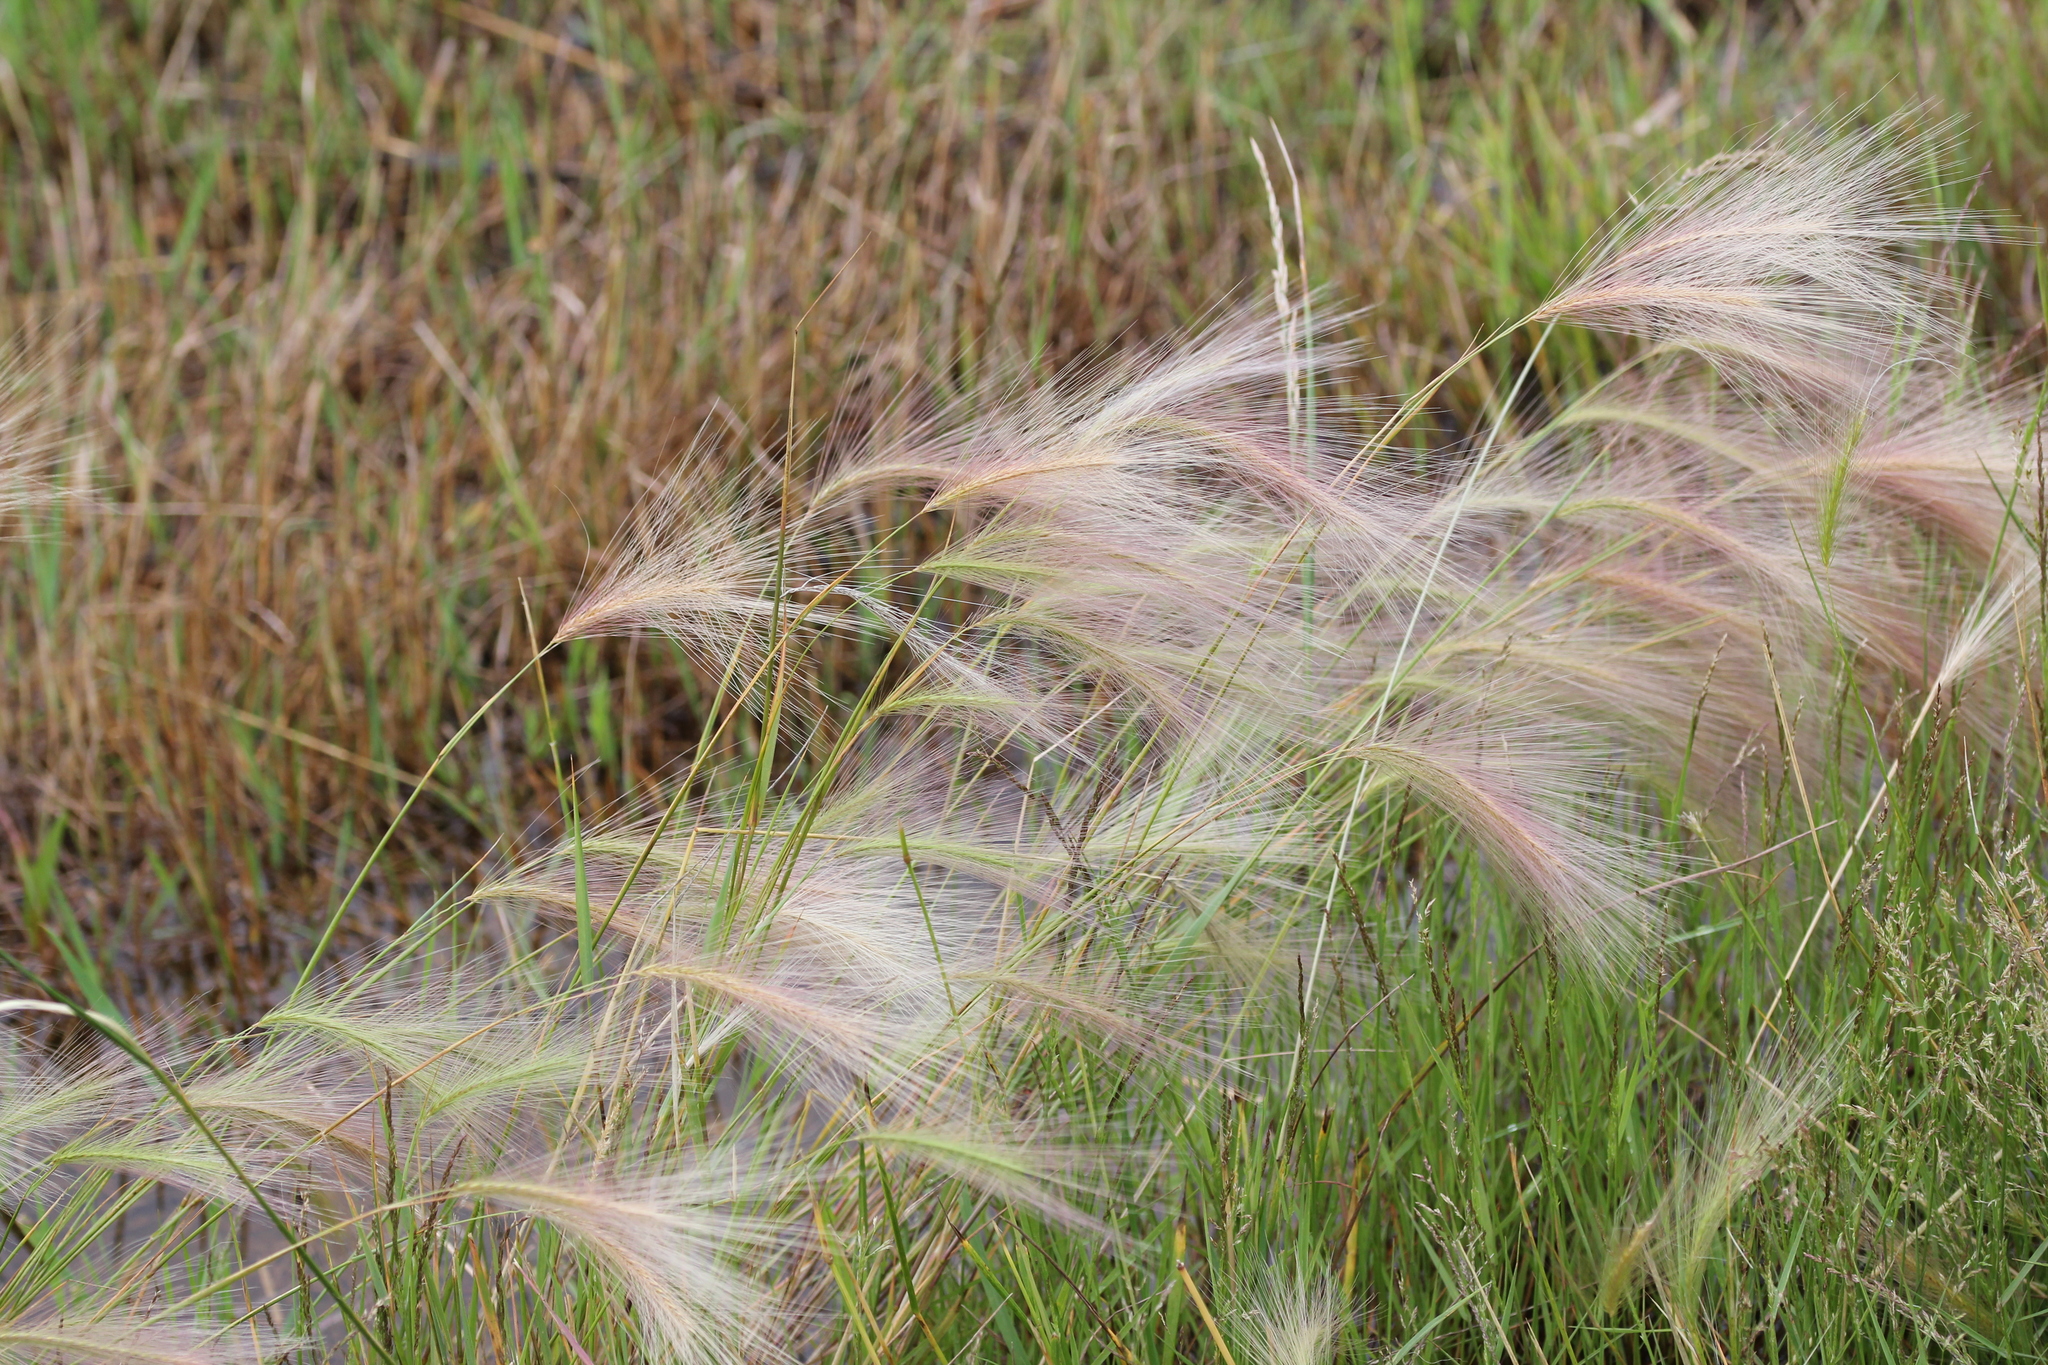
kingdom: Plantae
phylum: Tracheophyta
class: Liliopsida
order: Poales
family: Poaceae
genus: Hordeum
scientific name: Hordeum jubatum
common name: Foxtail barley
